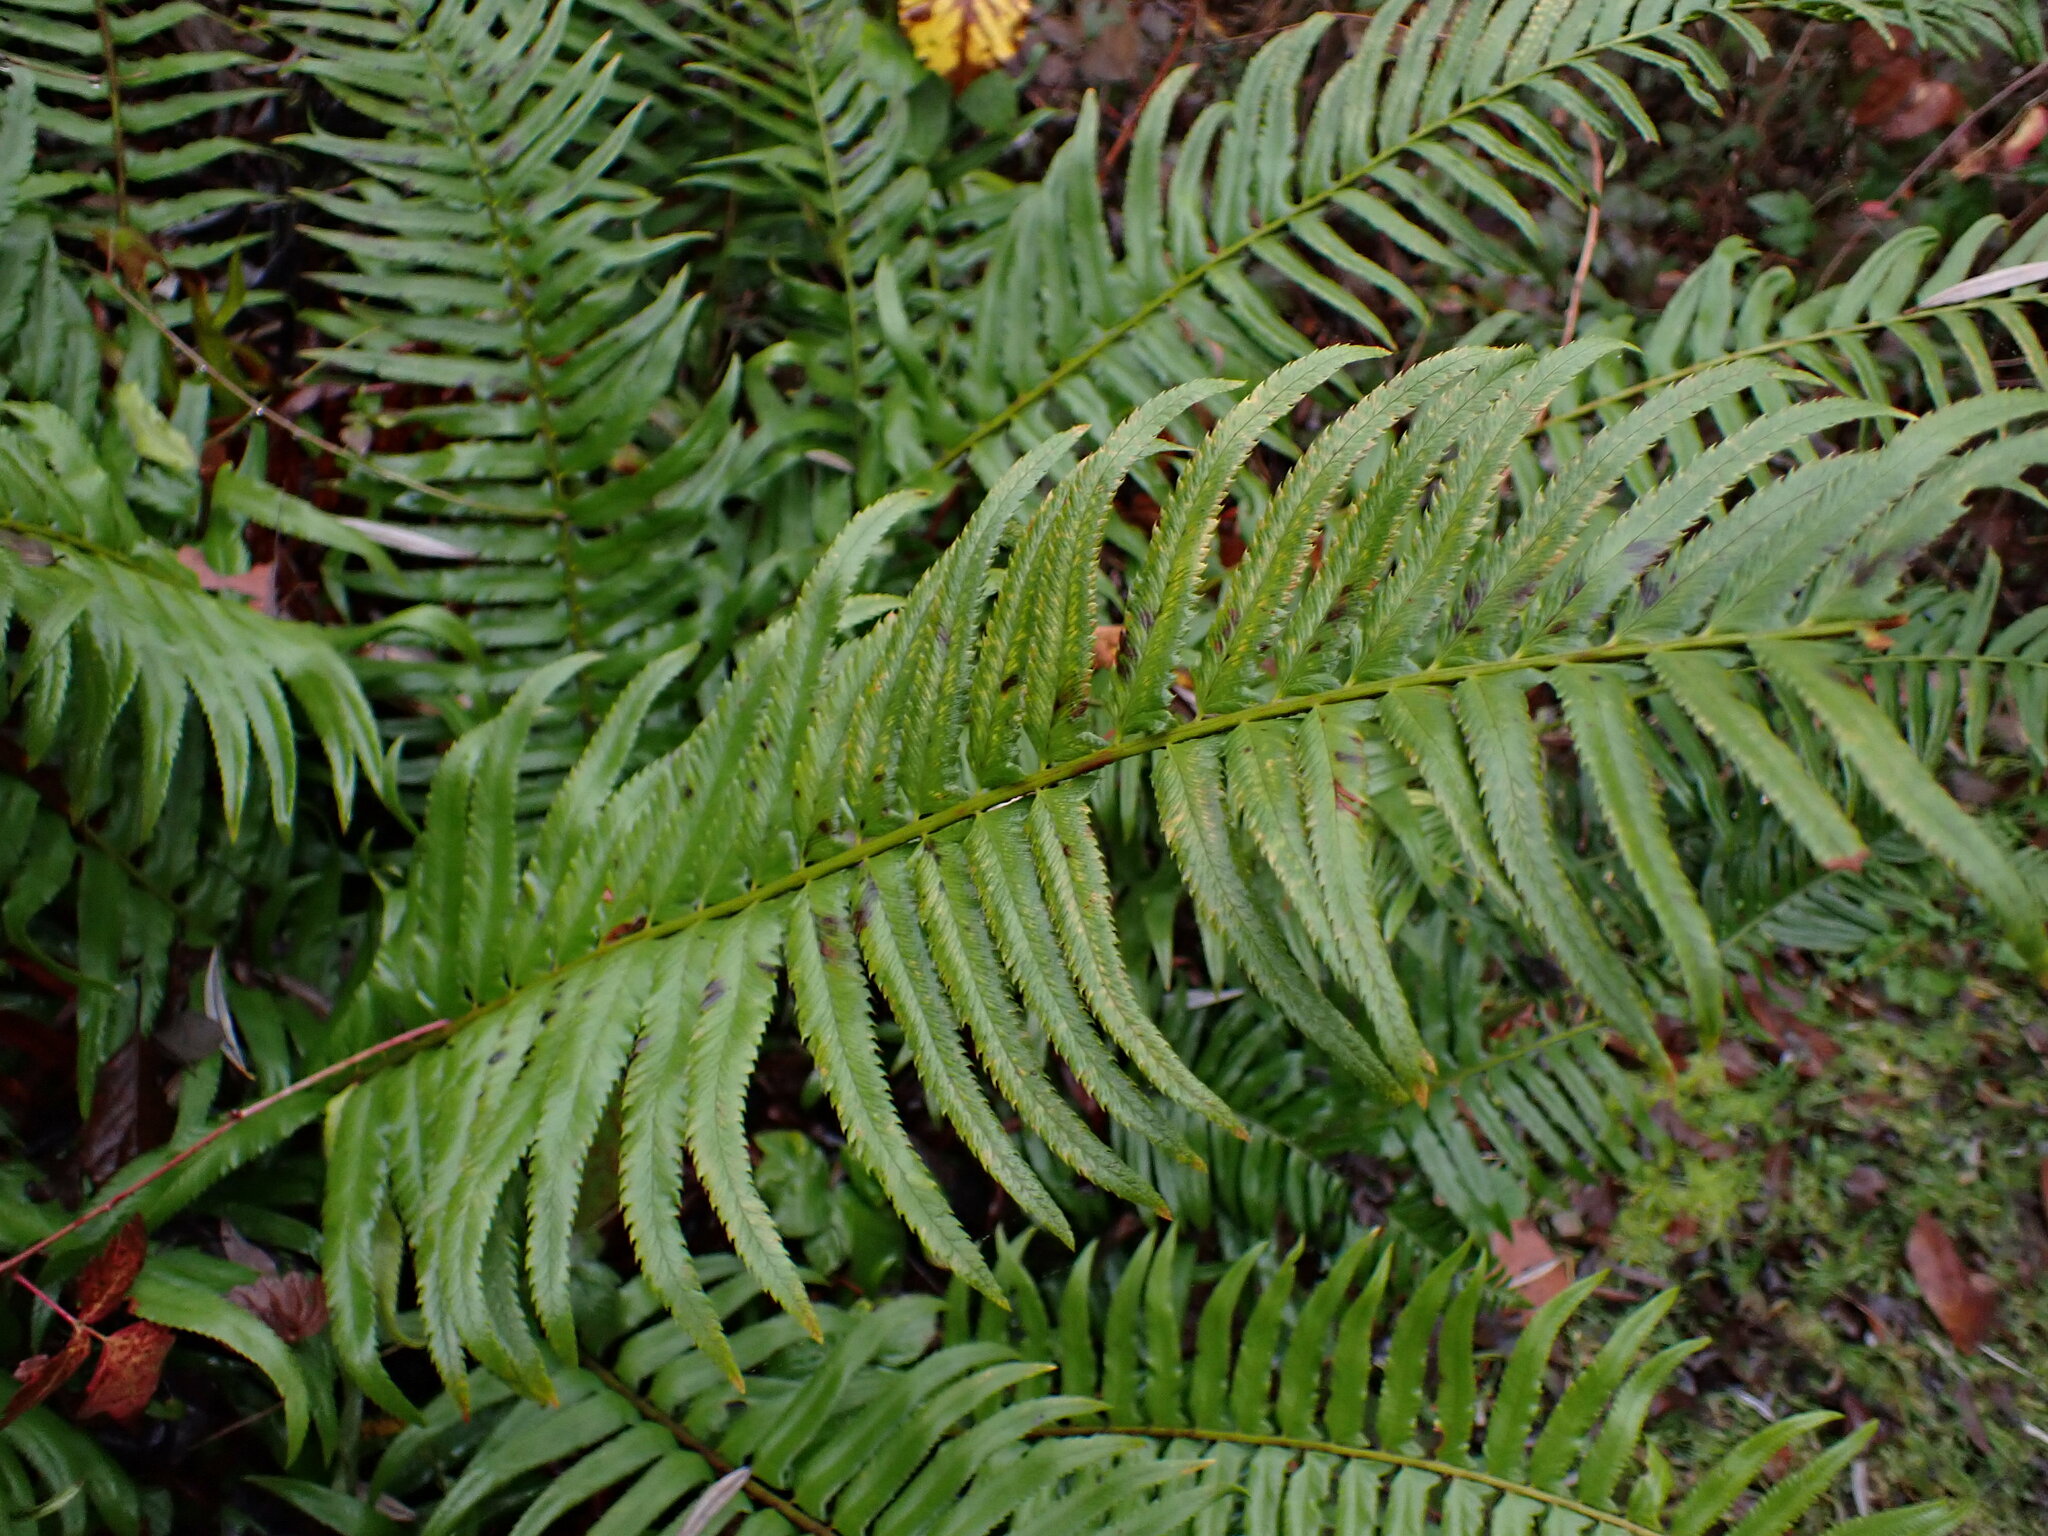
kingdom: Plantae
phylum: Tracheophyta
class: Polypodiopsida
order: Polypodiales
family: Dryopteridaceae
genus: Polystichum
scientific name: Polystichum munitum
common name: Western sword-fern
